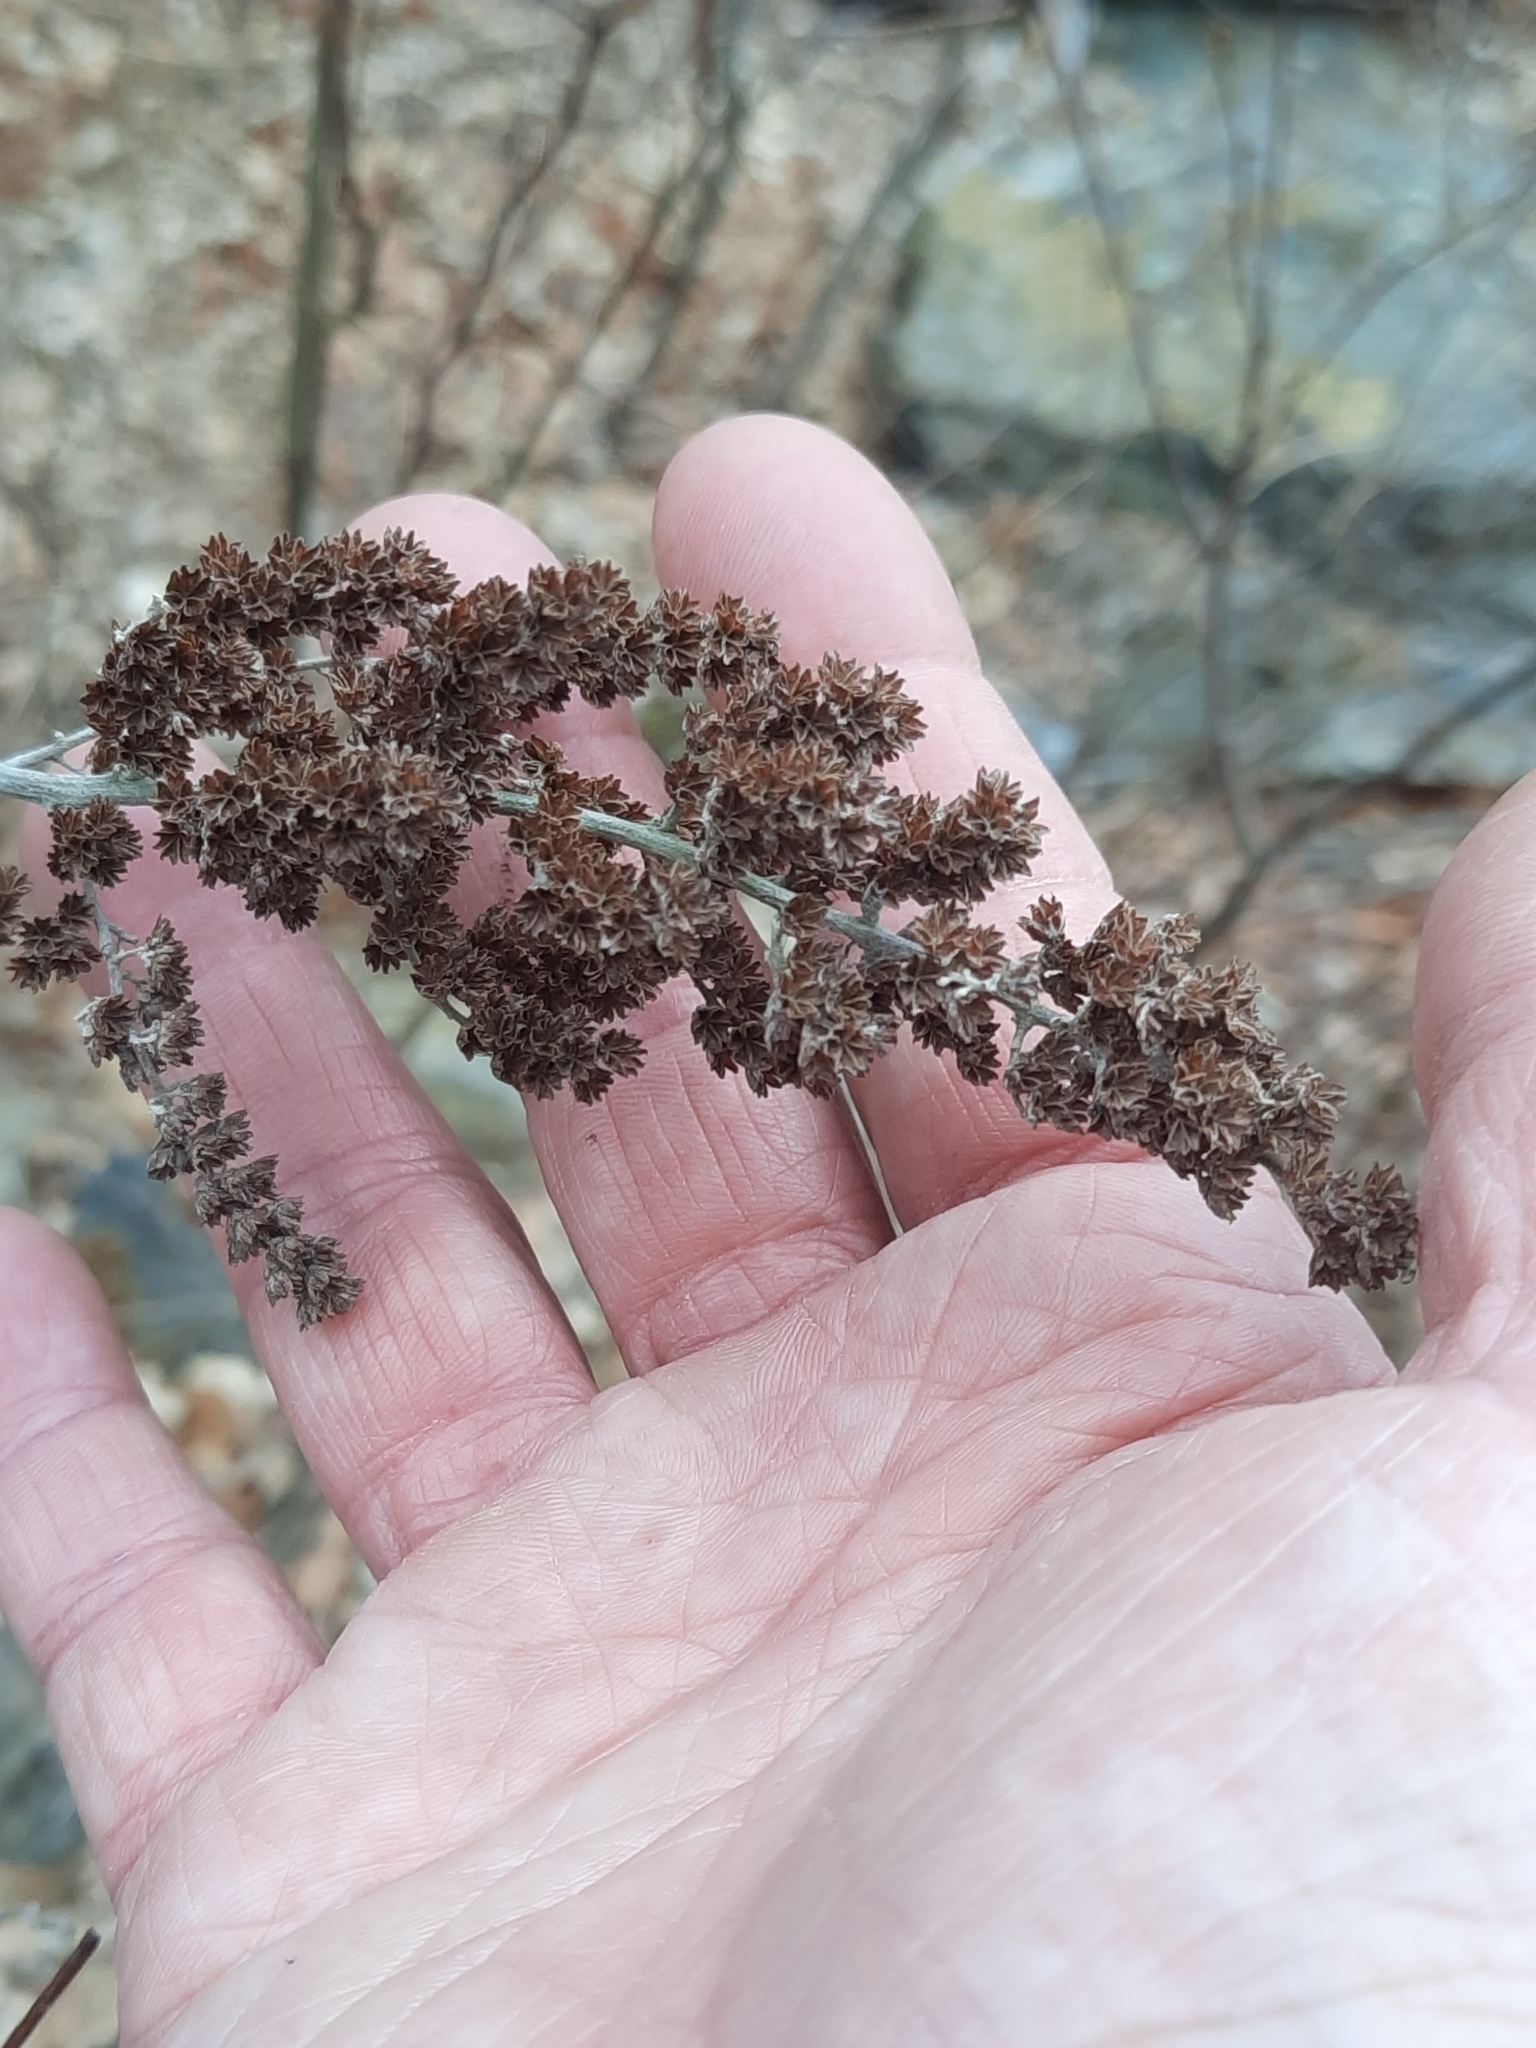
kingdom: Plantae
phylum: Tracheophyta
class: Magnoliopsida
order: Rosales
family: Rosaceae
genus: Spiraea
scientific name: Spiraea tomentosa
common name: Hardhack
